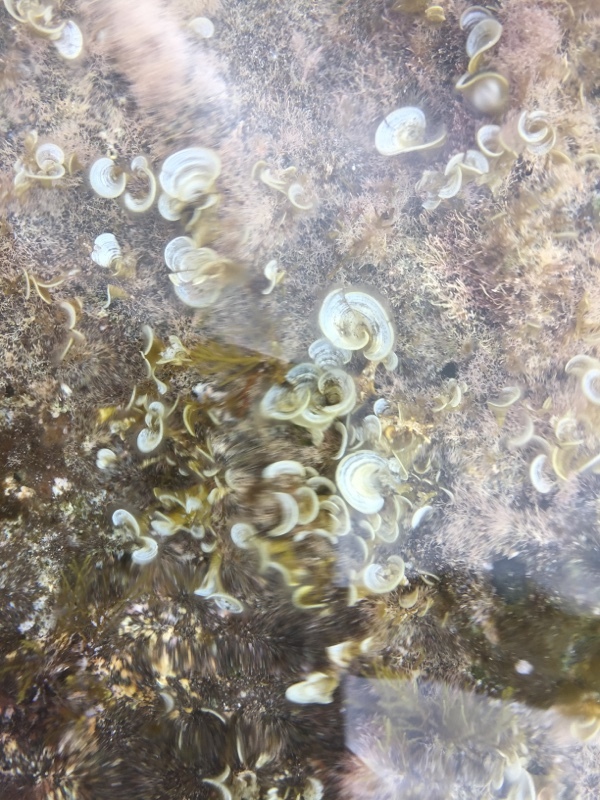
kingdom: Chromista
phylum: Ochrophyta
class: Phaeophyceae
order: Dictyotales
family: Dictyotaceae
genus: Padina
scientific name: Padina pavonica
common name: Turkey feather alga
